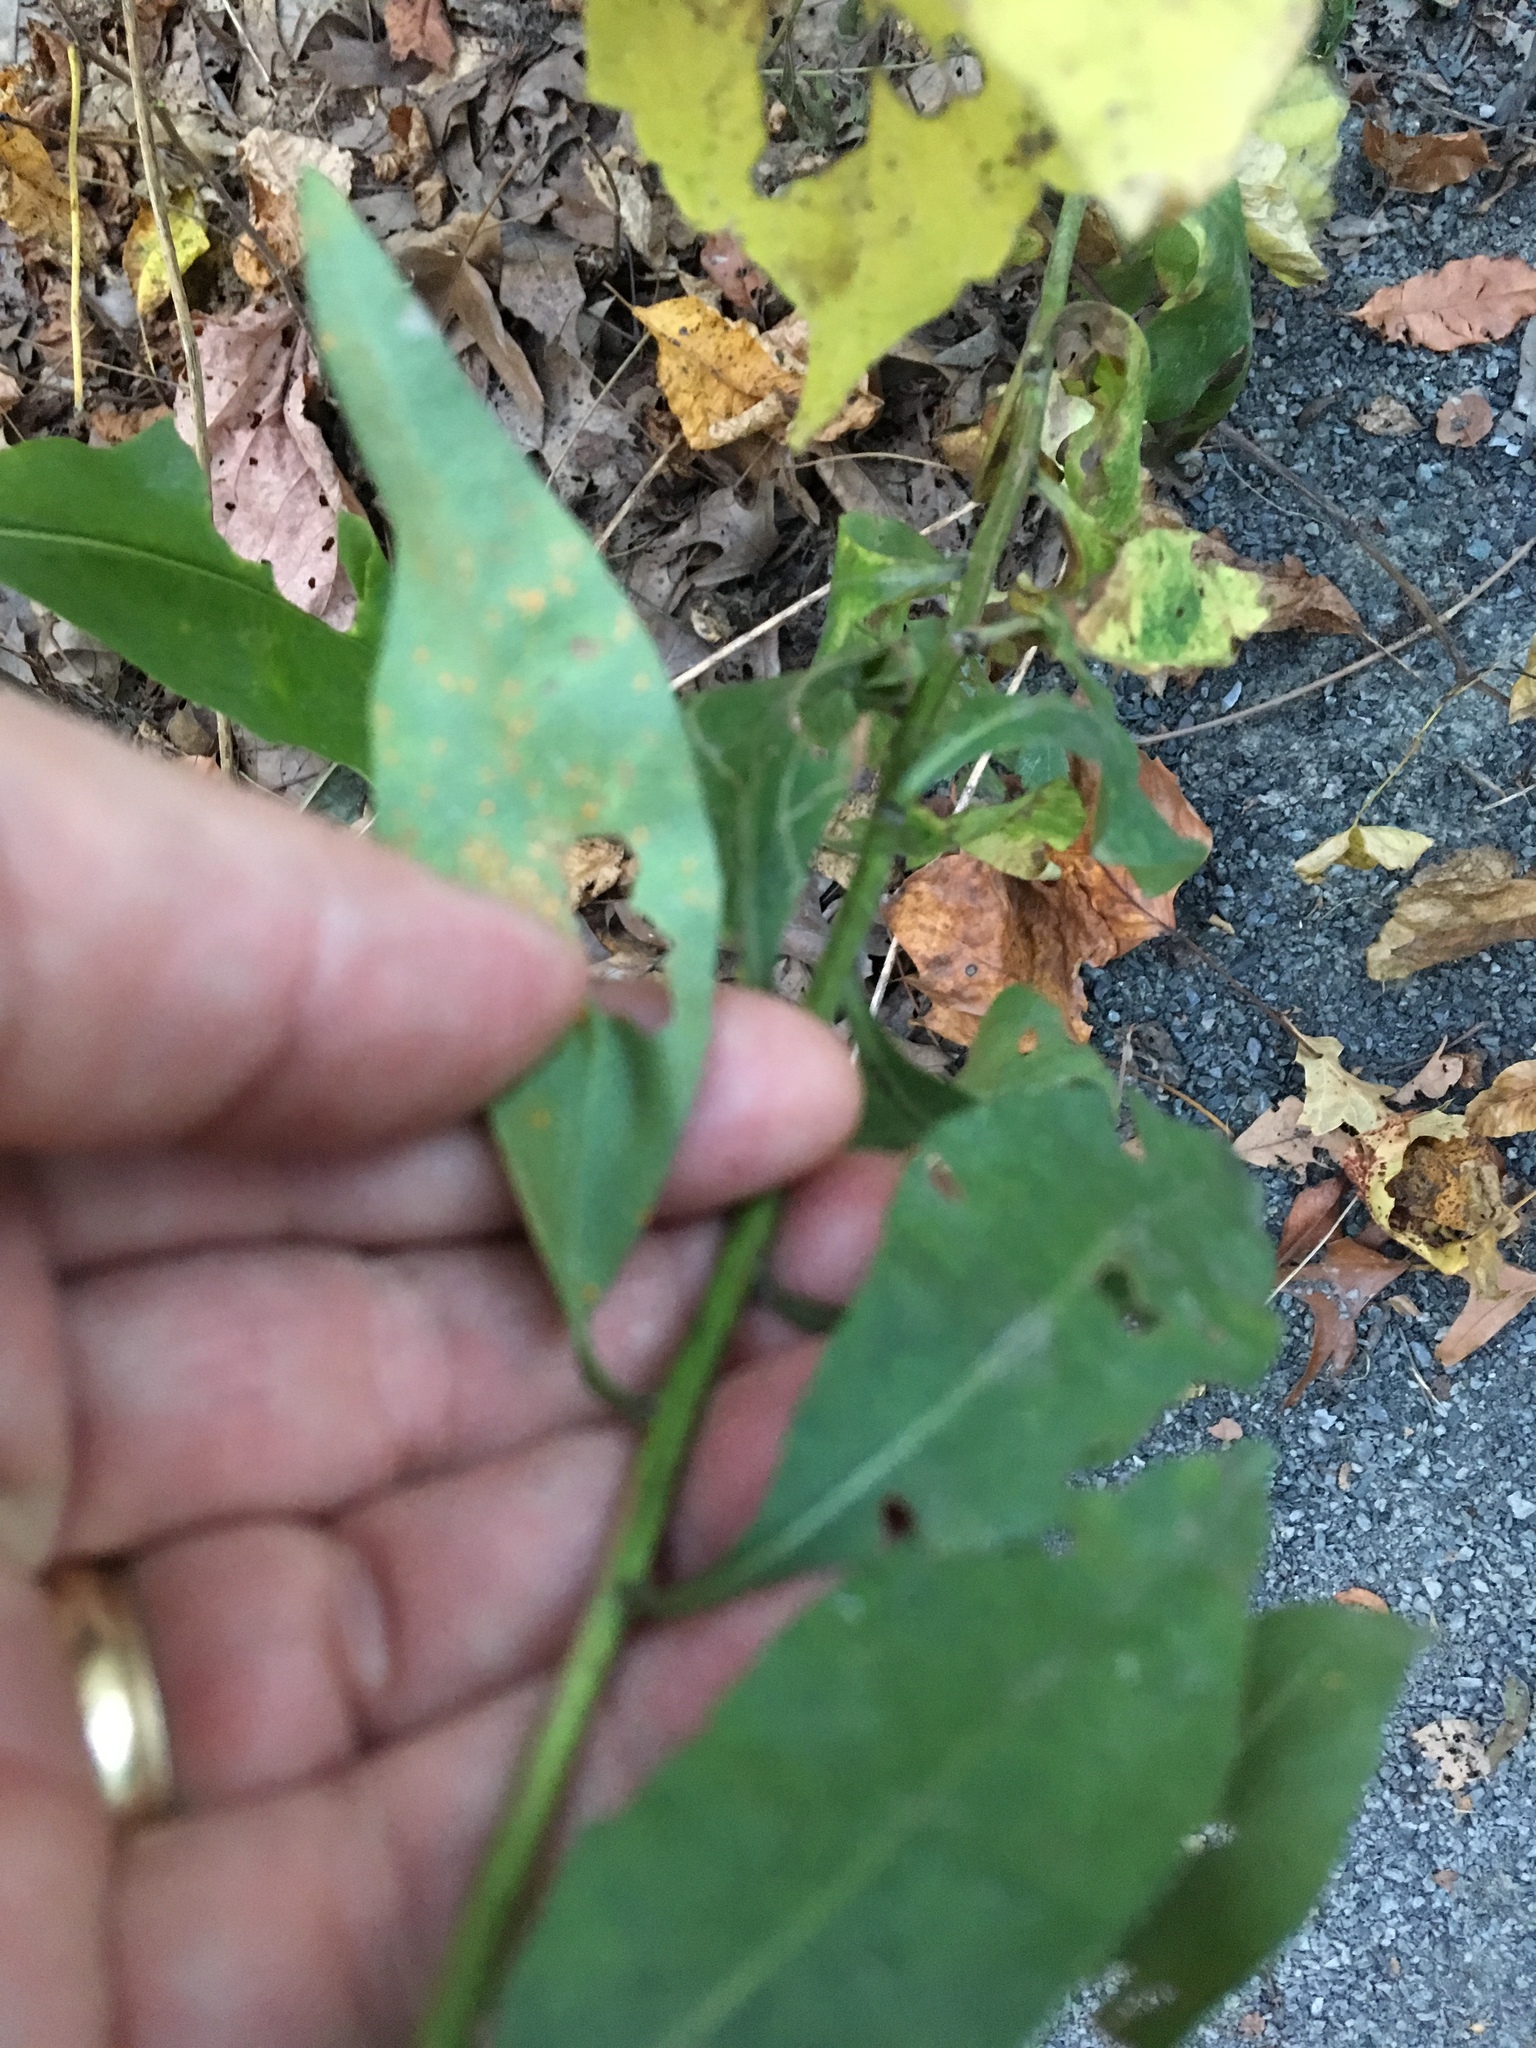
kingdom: Plantae
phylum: Tracheophyta
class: Magnoliopsida
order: Asterales
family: Asteraceae
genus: Solidago
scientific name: Solidago speciosa
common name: Showy goldenrod
